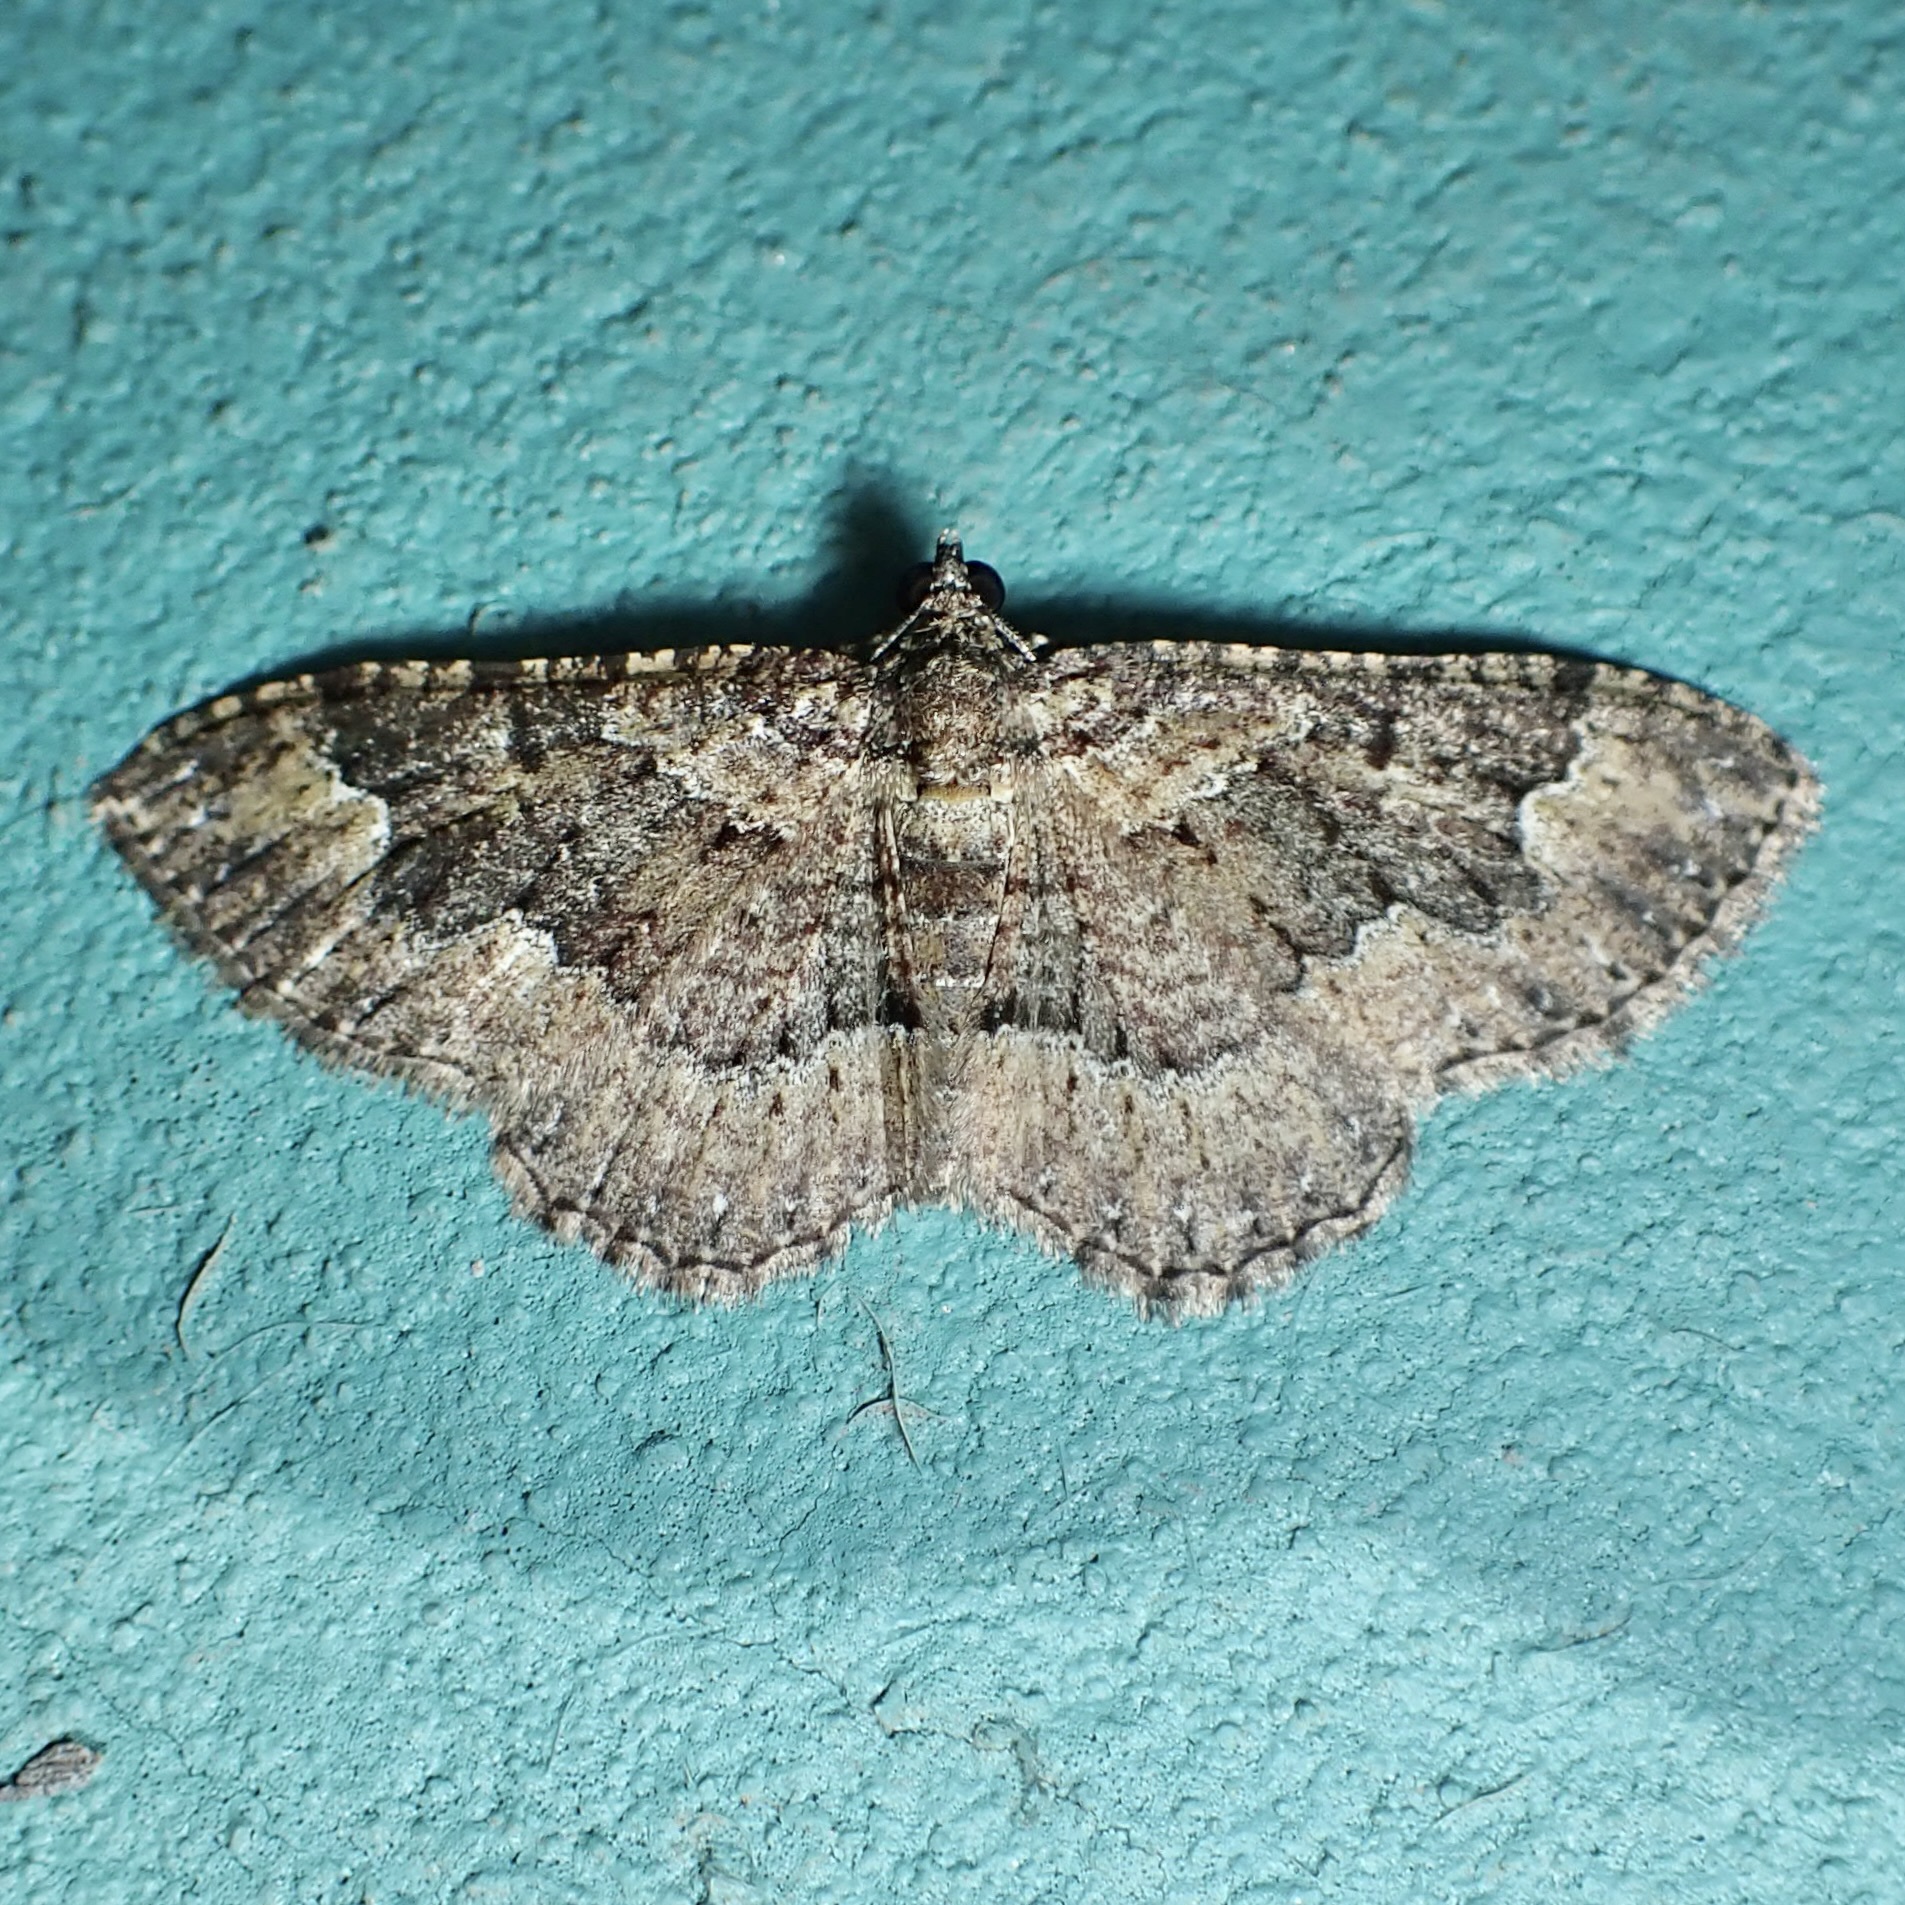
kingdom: Animalia
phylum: Arthropoda
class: Insecta
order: Lepidoptera
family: Geometridae
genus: Disclisioprocta
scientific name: Disclisioprocta stellata
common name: Somber carpet
